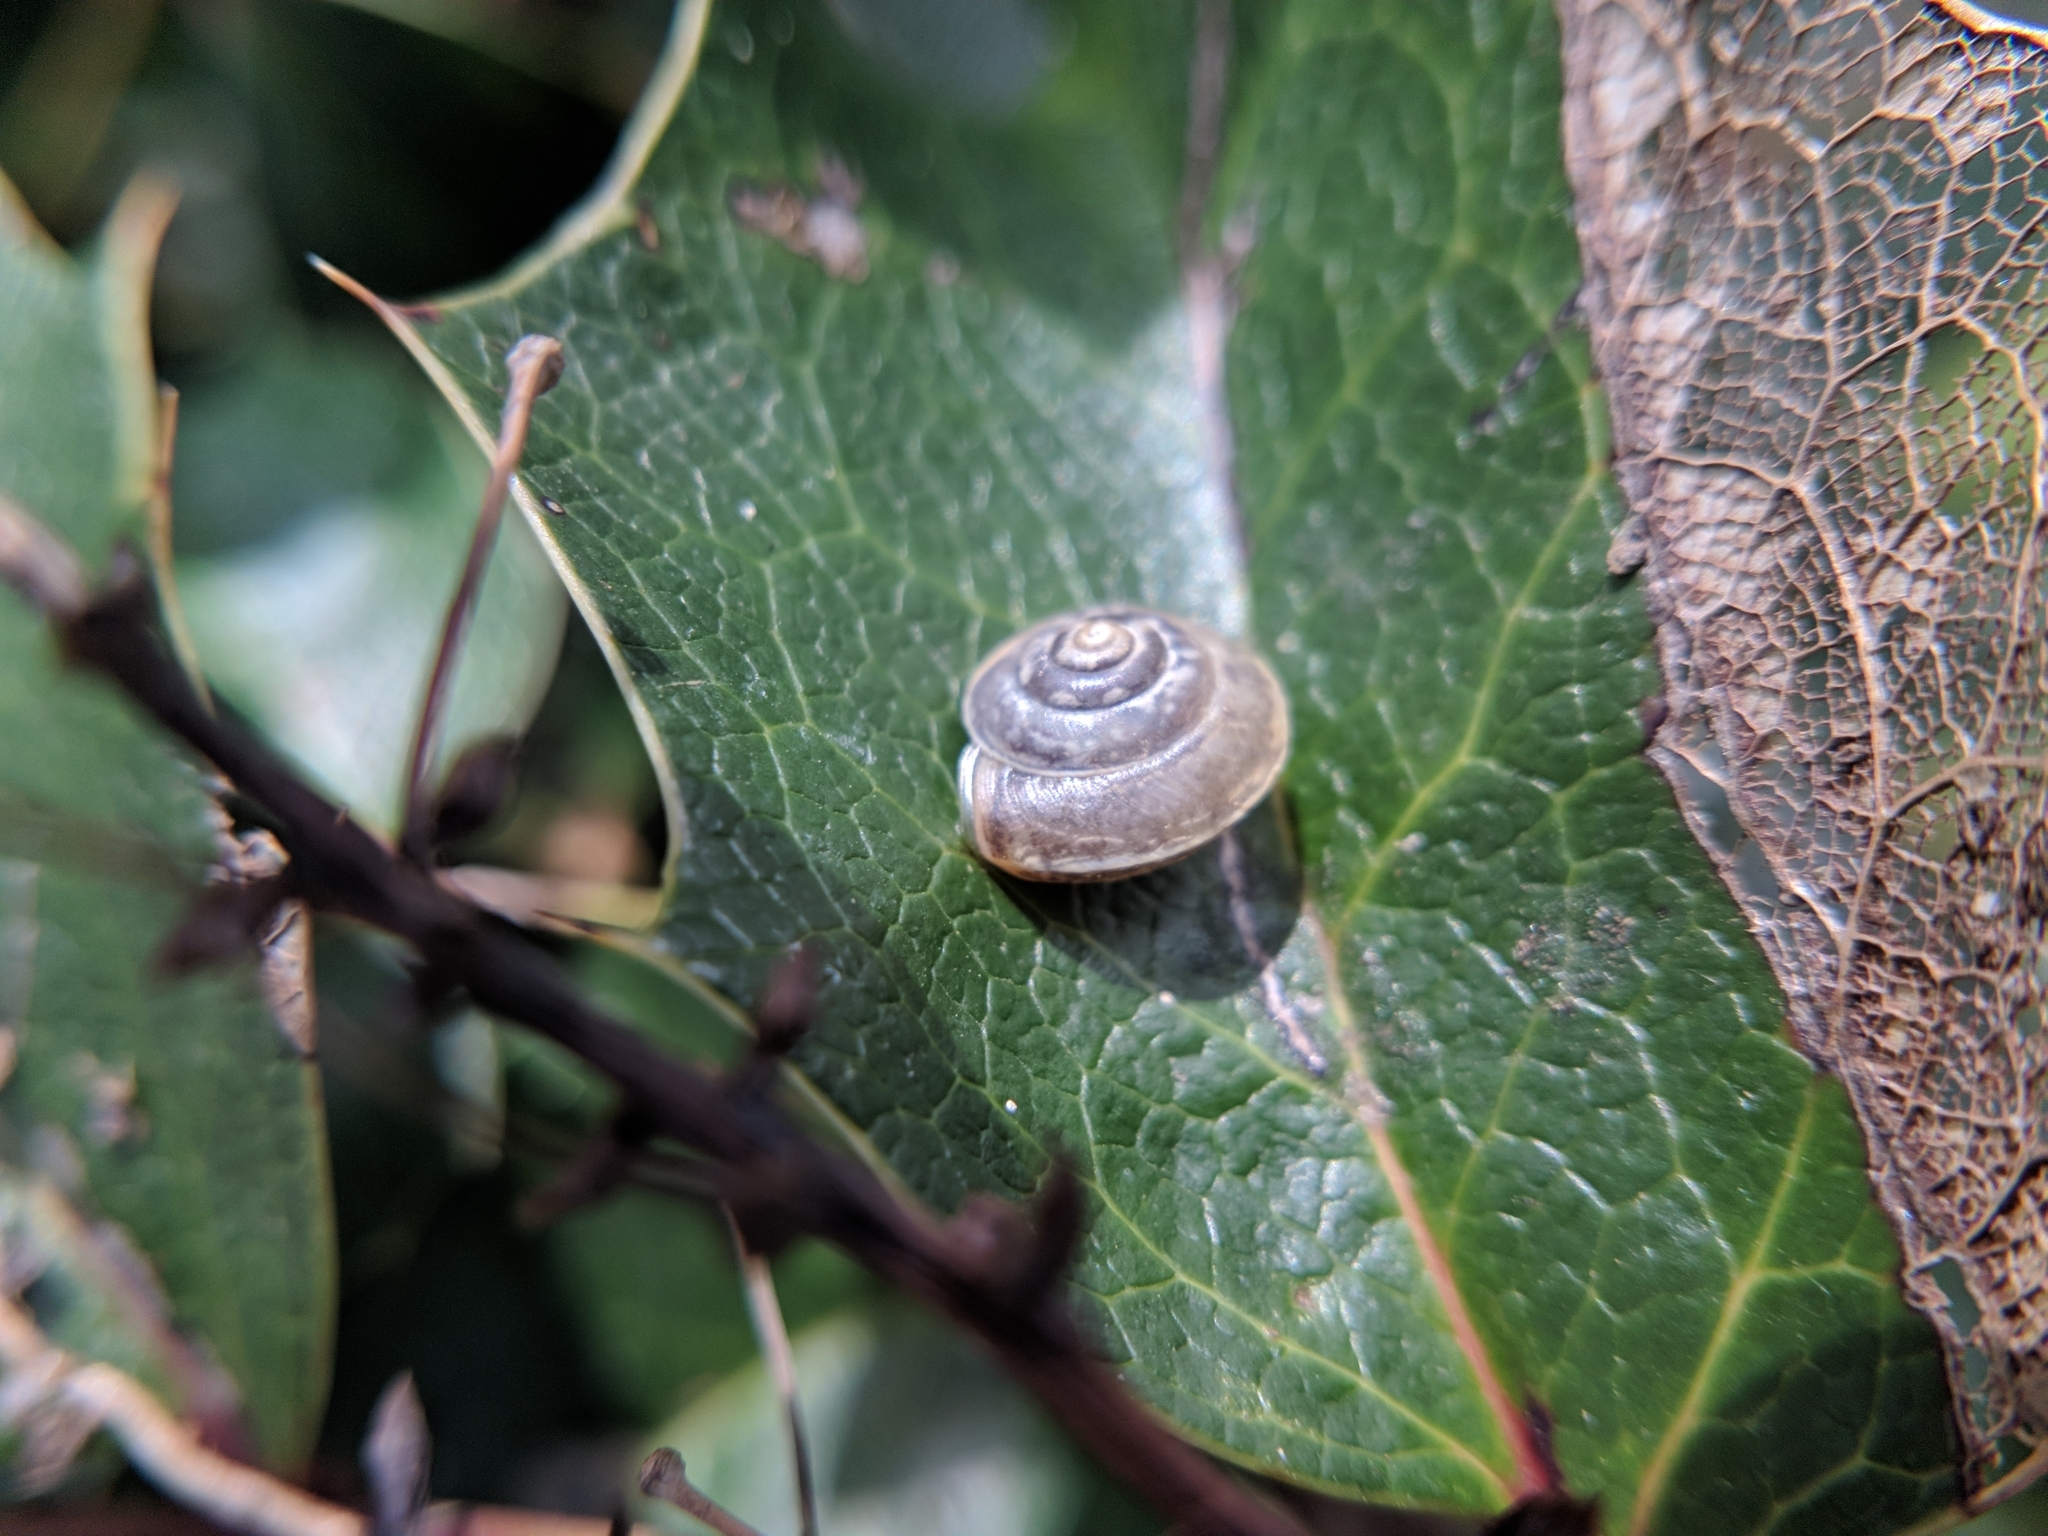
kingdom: Animalia
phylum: Mollusca
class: Gastropoda
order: Stylommatophora
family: Hygromiidae
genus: Hygromia
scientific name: Hygromia cinctella
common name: Girdled snail
